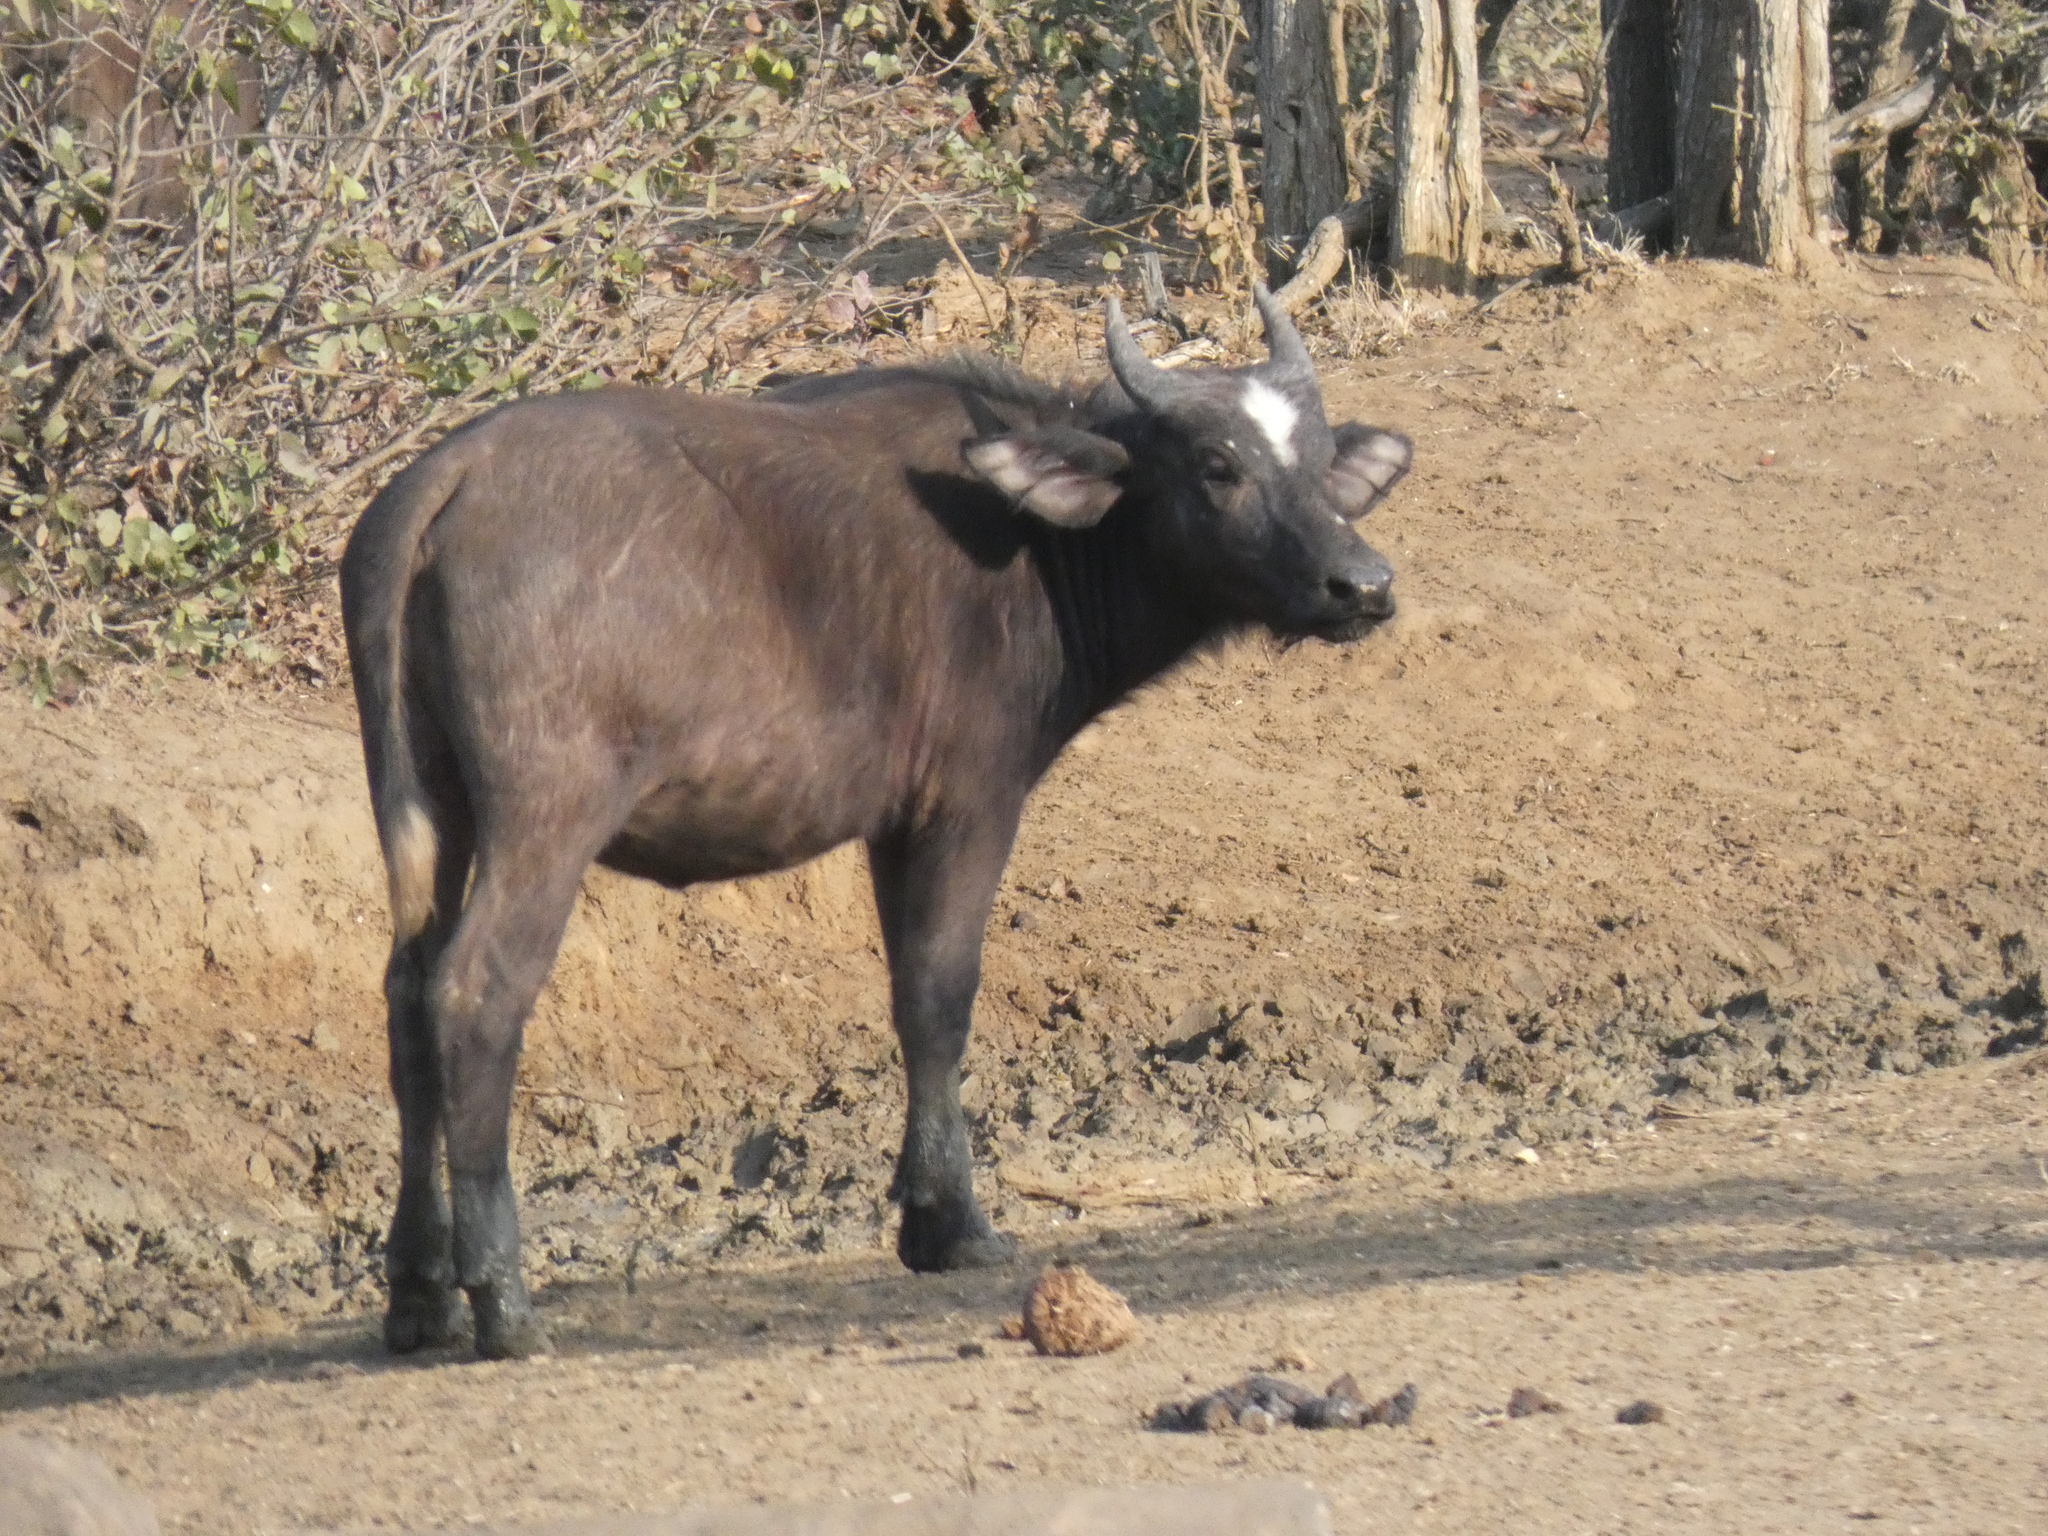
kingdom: Animalia
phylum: Chordata
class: Mammalia
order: Artiodactyla
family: Bovidae
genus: Syncerus
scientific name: Syncerus caffer
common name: African buffalo
